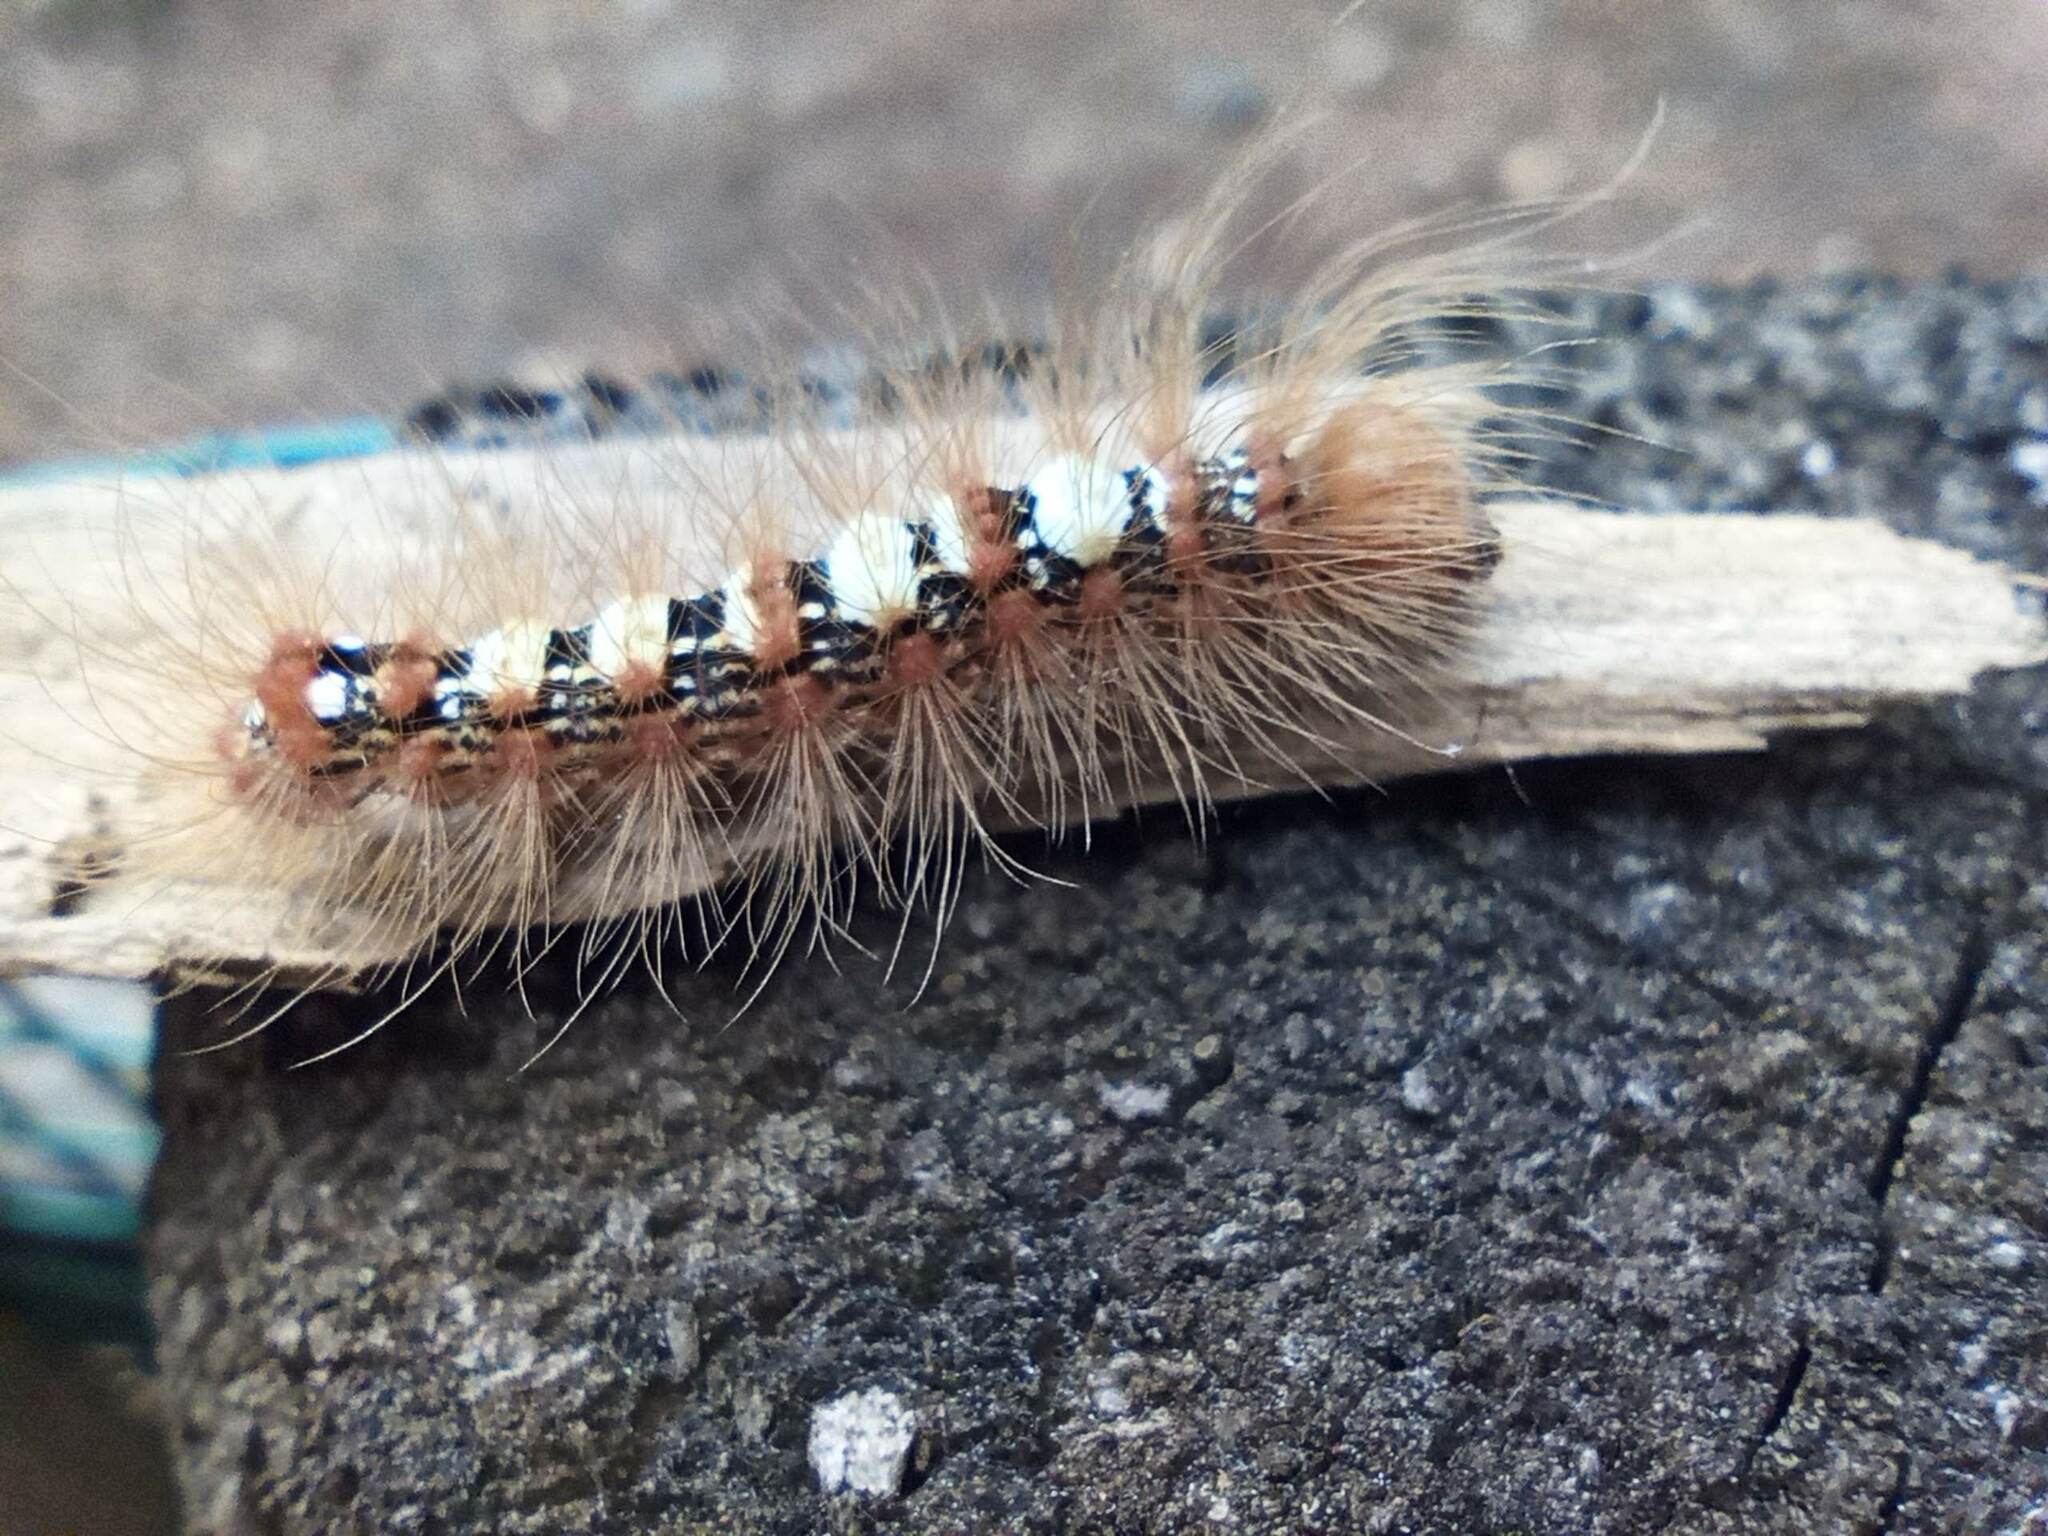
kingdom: Animalia
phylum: Arthropoda
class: Insecta
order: Lepidoptera
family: Noctuidae
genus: Moma
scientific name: Moma alpium
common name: Scarce merveille du jour
